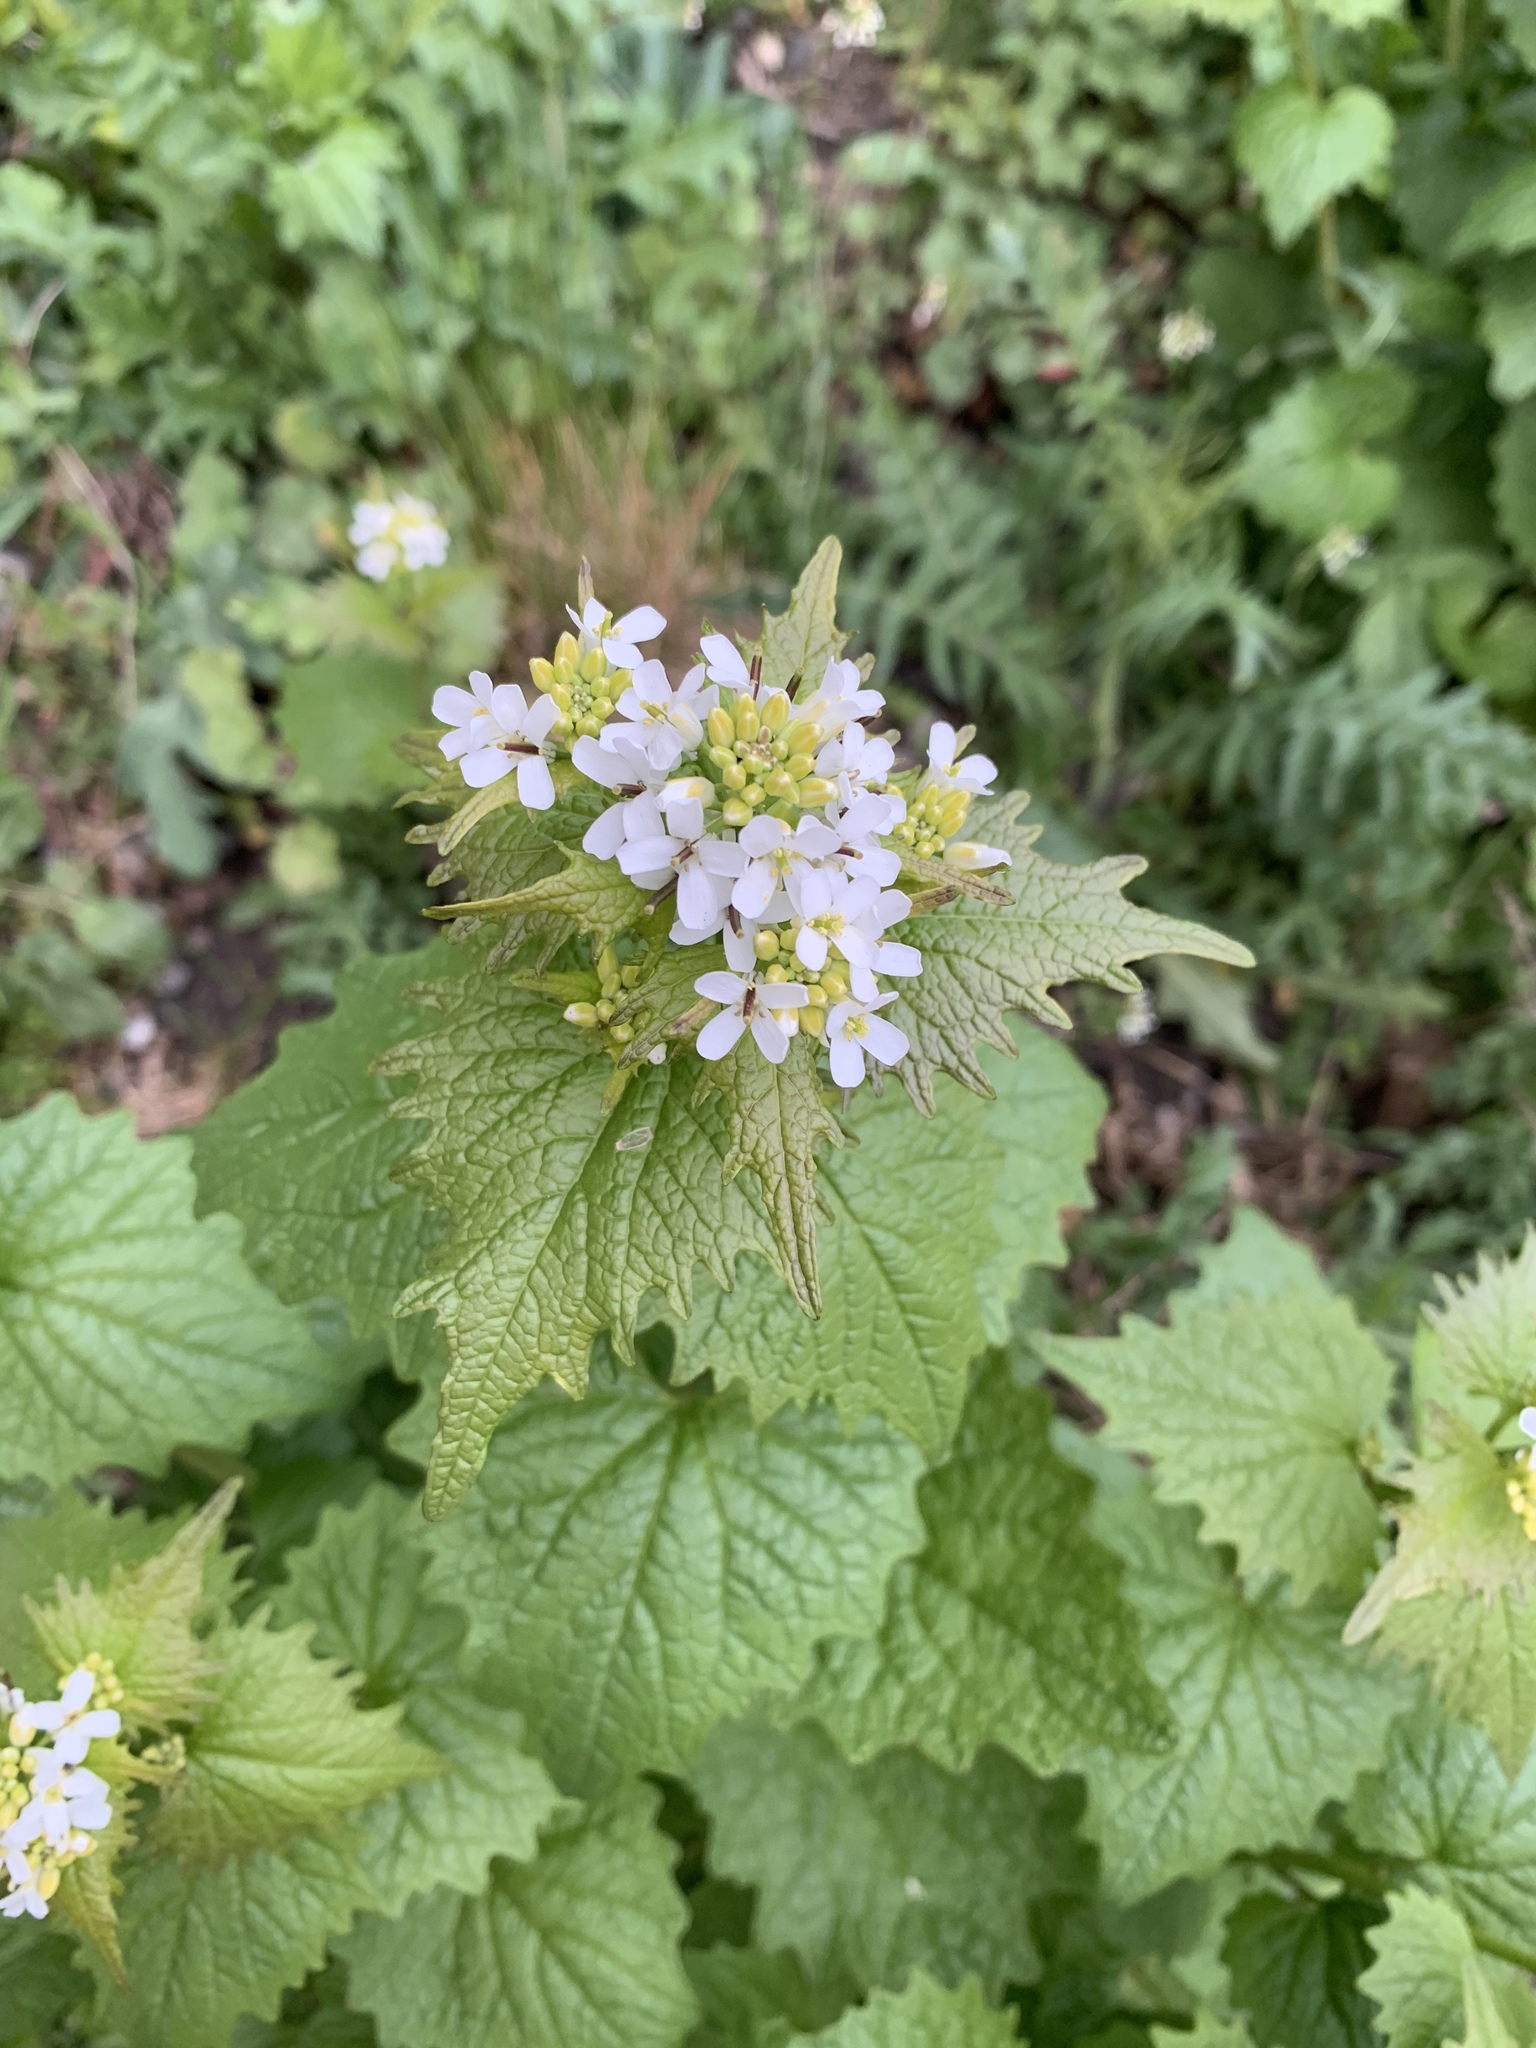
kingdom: Plantae
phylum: Tracheophyta
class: Magnoliopsida
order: Brassicales
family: Brassicaceae
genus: Alliaria
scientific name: Alliaria petiolata
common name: Garlic mustard
